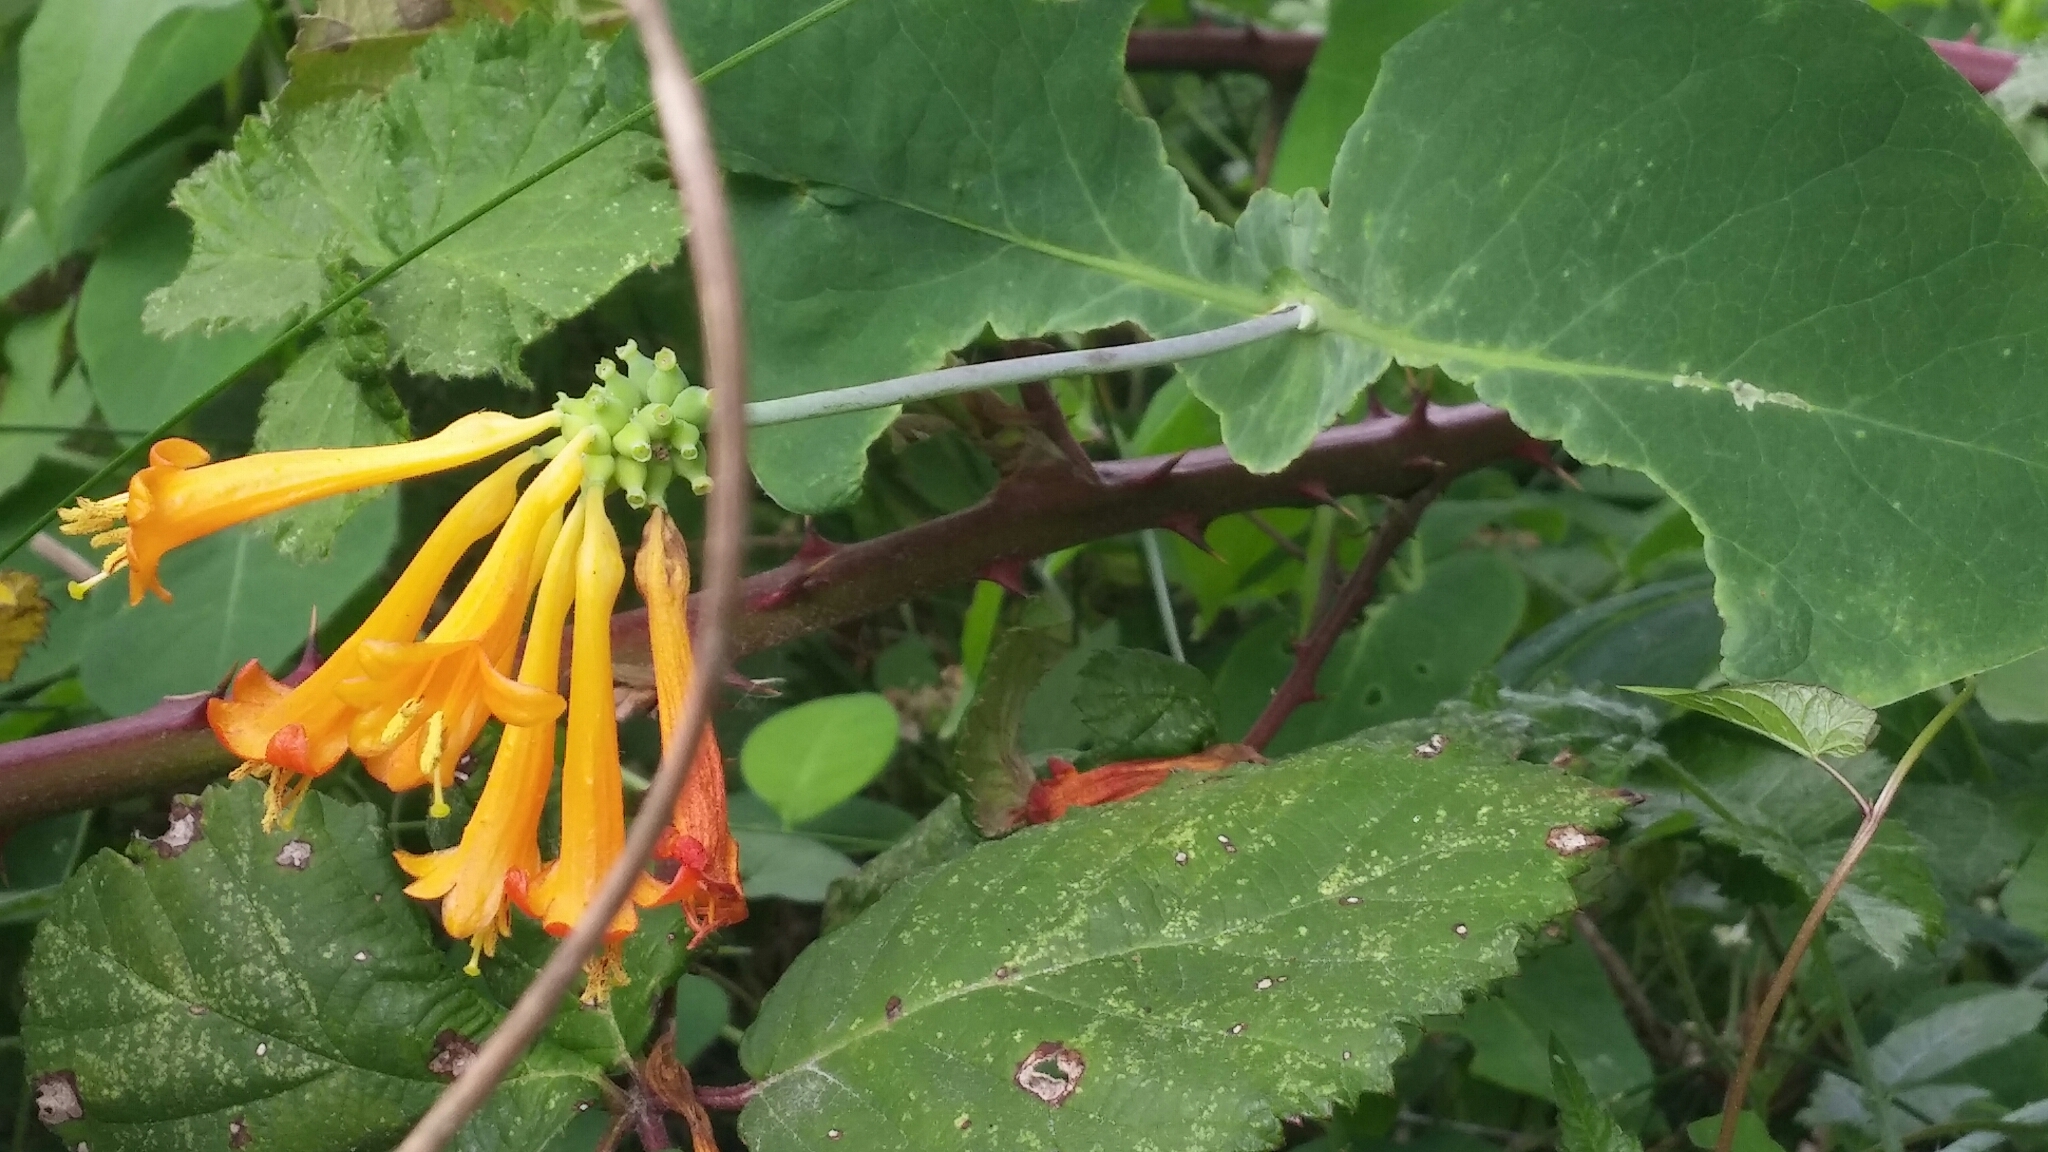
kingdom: Plantae
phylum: Tracheophyta
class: Magnoliopsida
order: Dipsacales
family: Caprifoliaceae
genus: Lonicera
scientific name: Lonicera ciliosa
